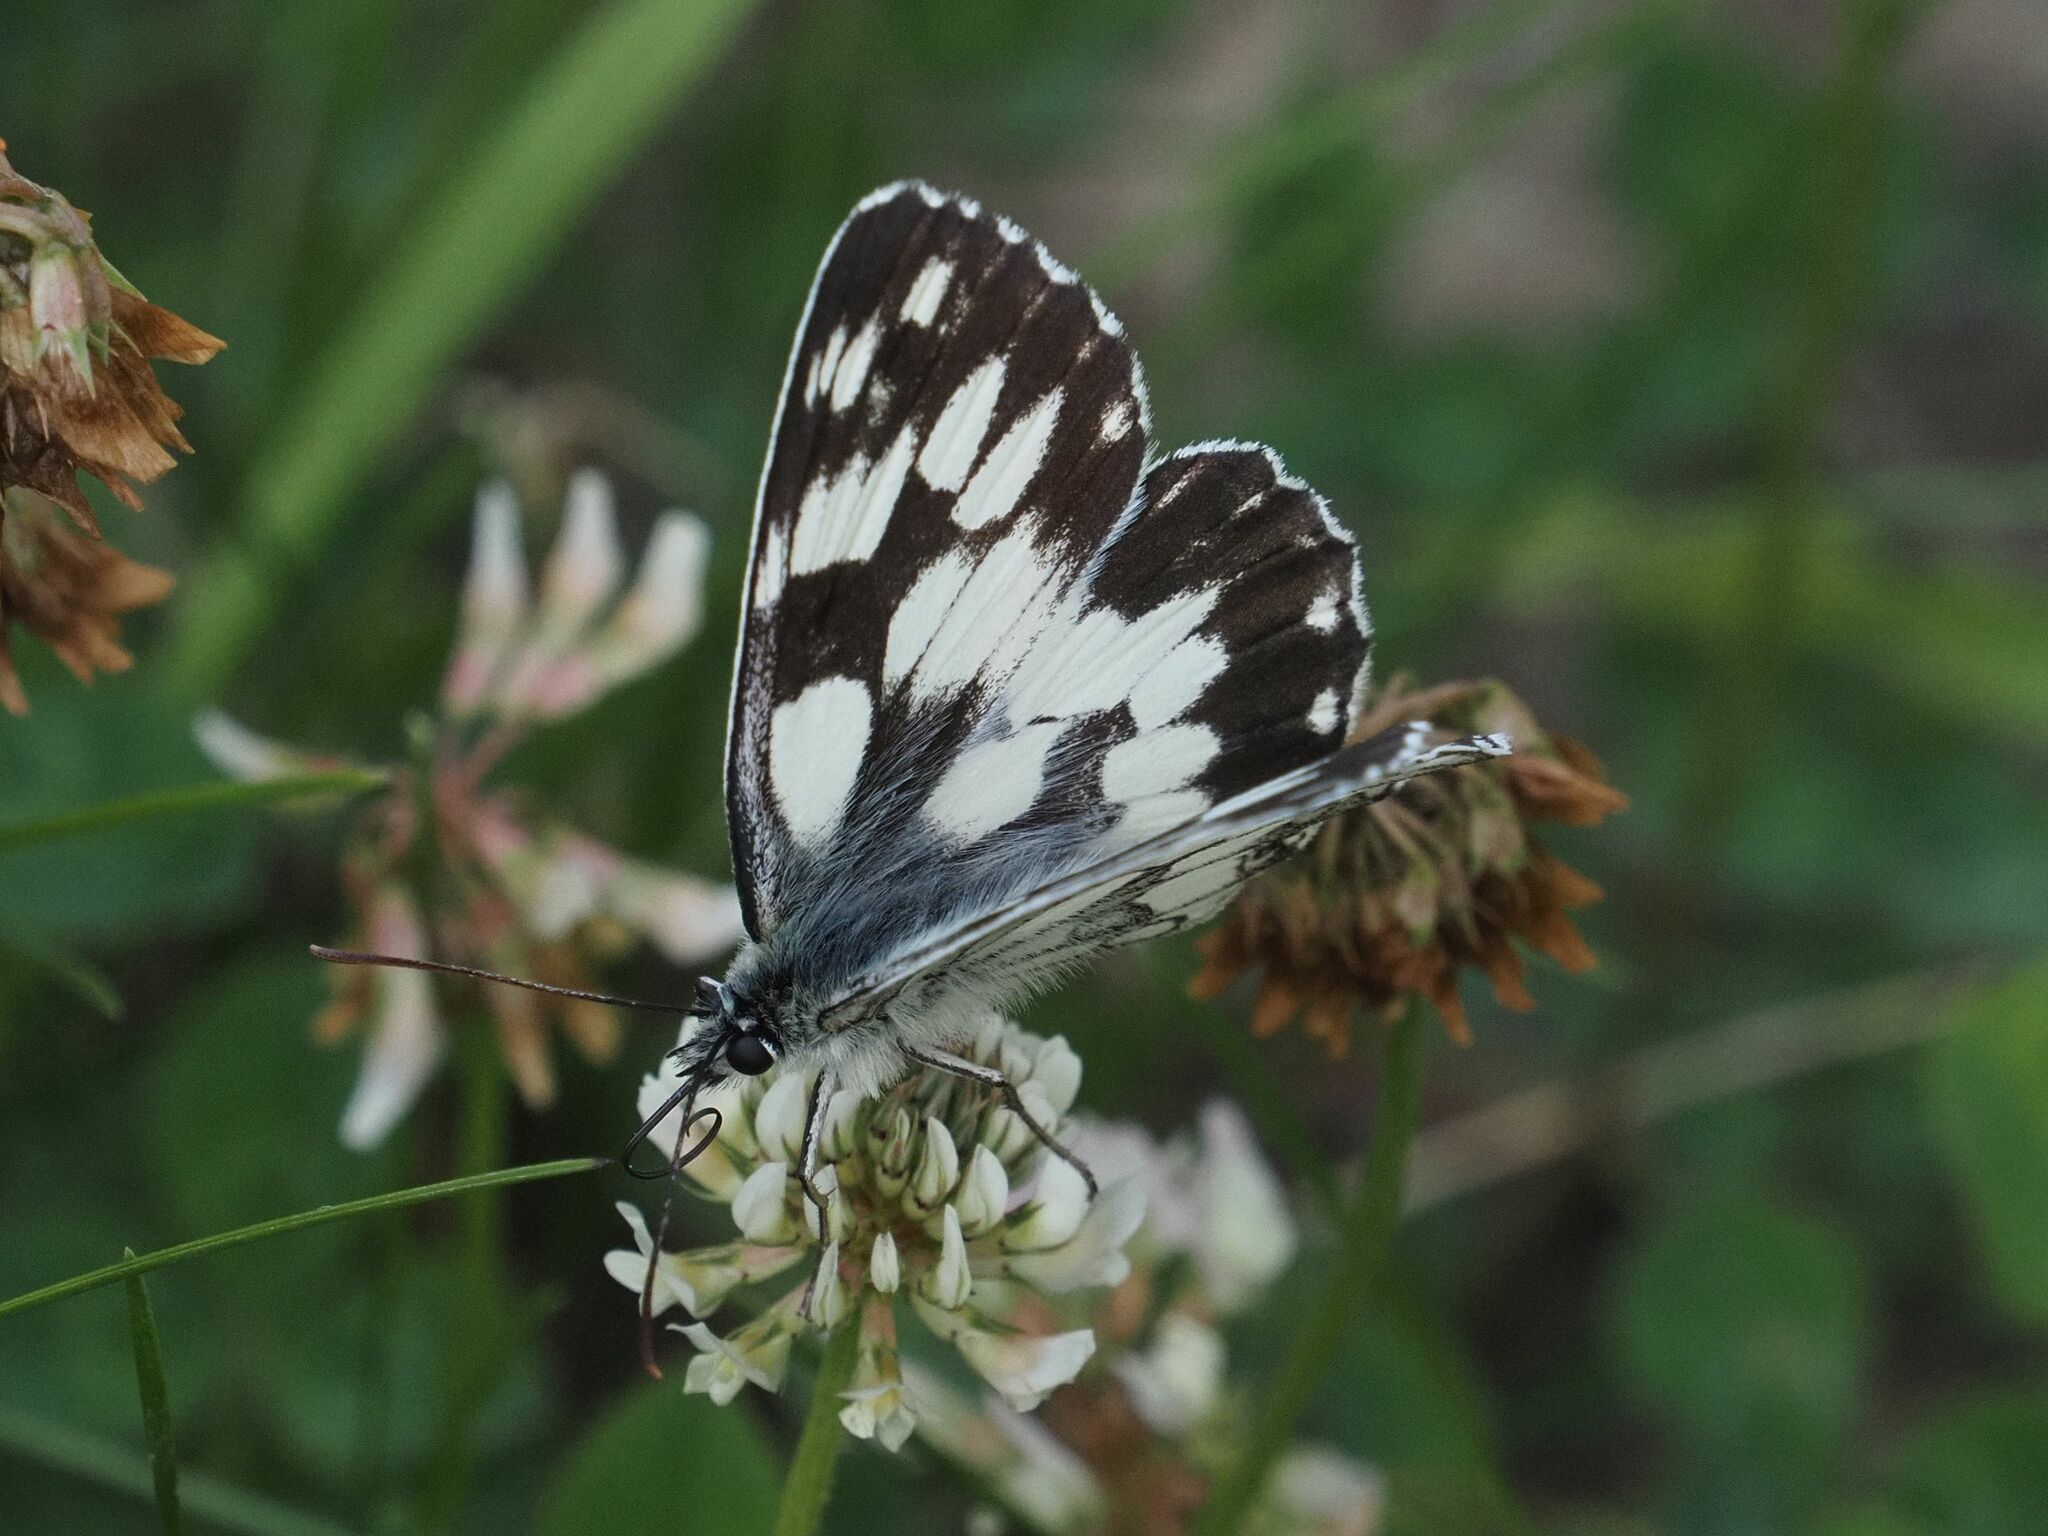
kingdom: Animalia
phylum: Arthropoda
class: Insecta
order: Lepidoptera
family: Nymphalidae
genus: Melanargia
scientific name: Melanargia galathea
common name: Marbled white
